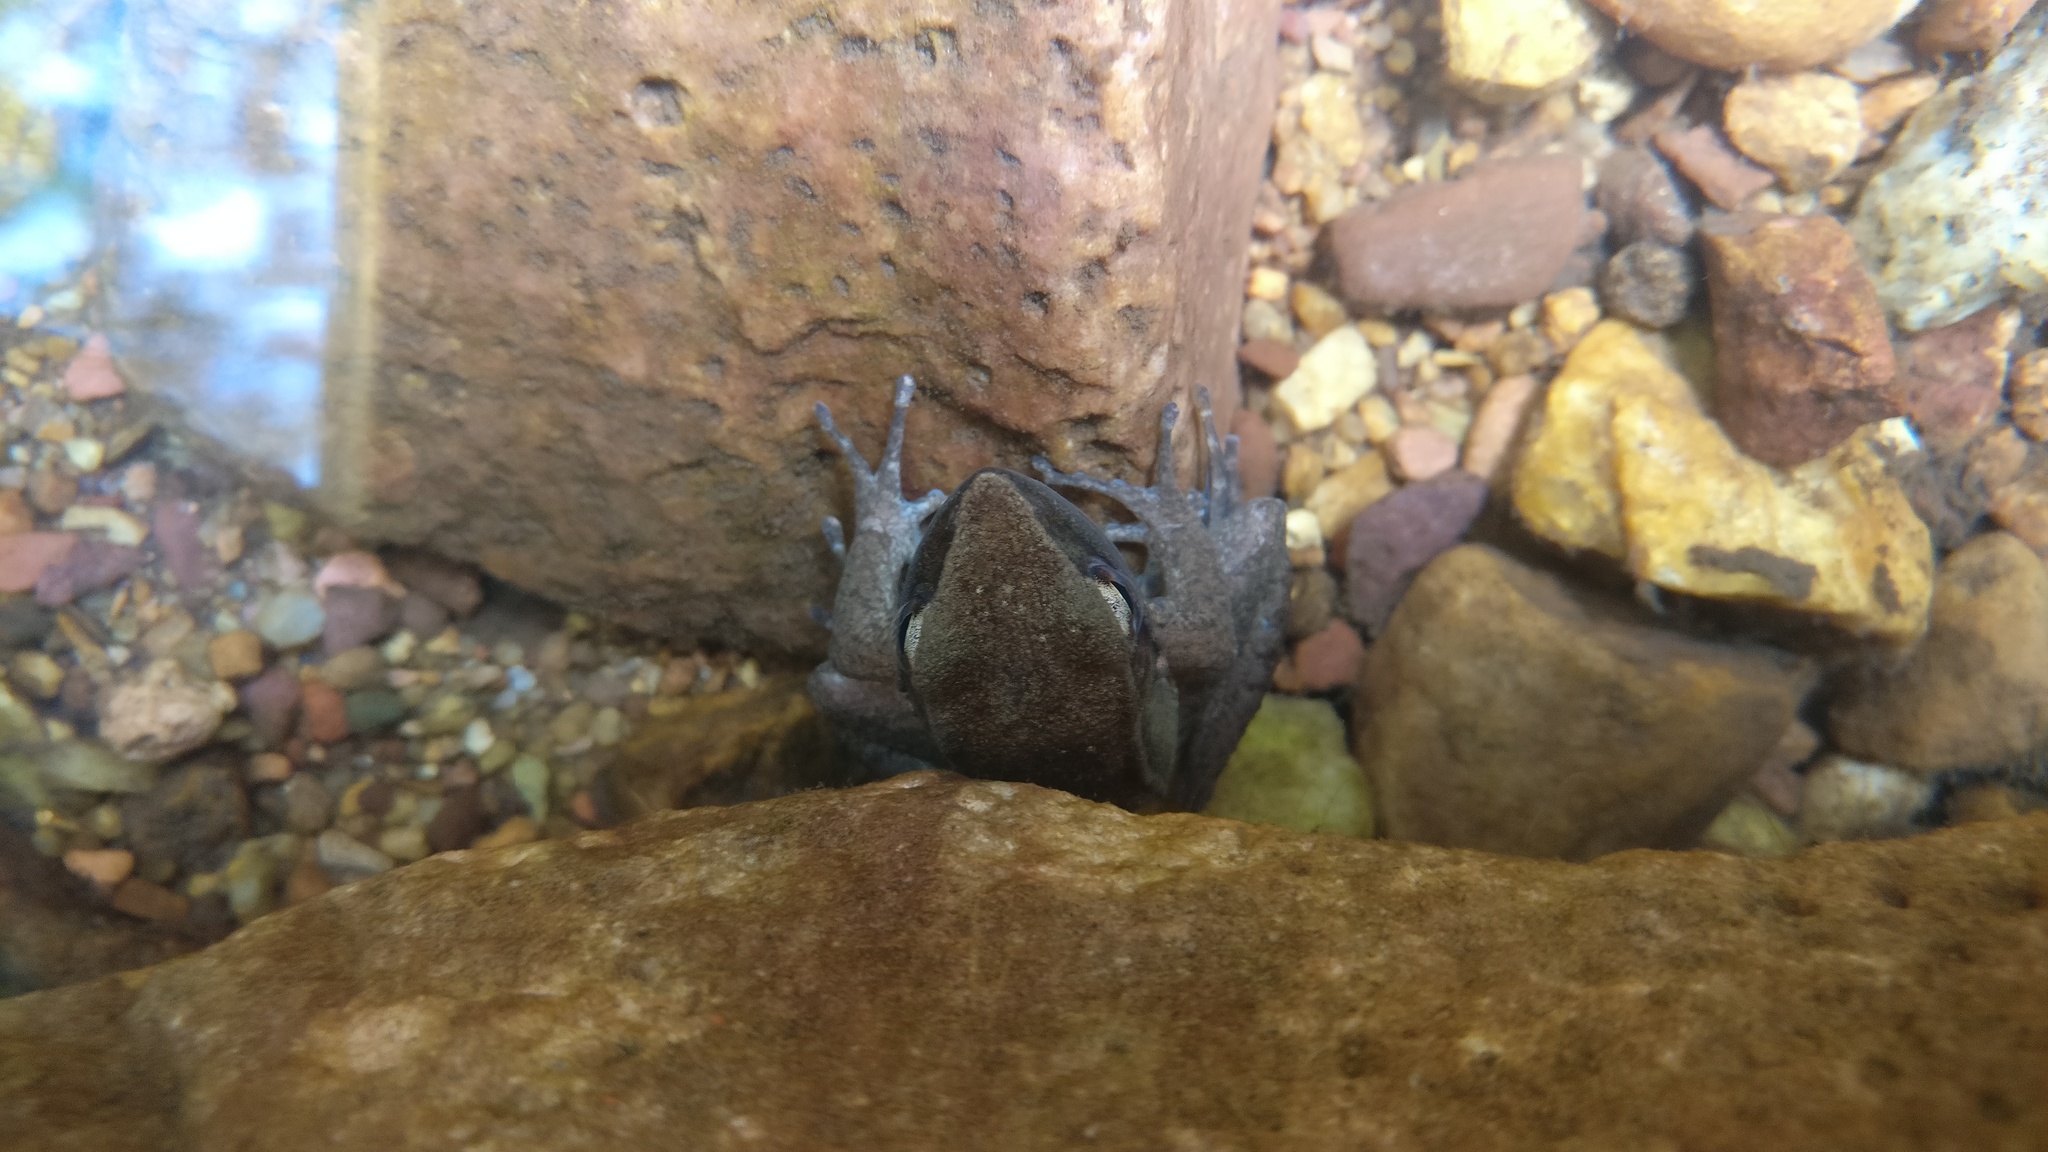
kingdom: Animalia
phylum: Chordata
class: Amphibia
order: Anura
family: Ranidae
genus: Indosylvirana
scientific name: Indosylvirana sreeni
